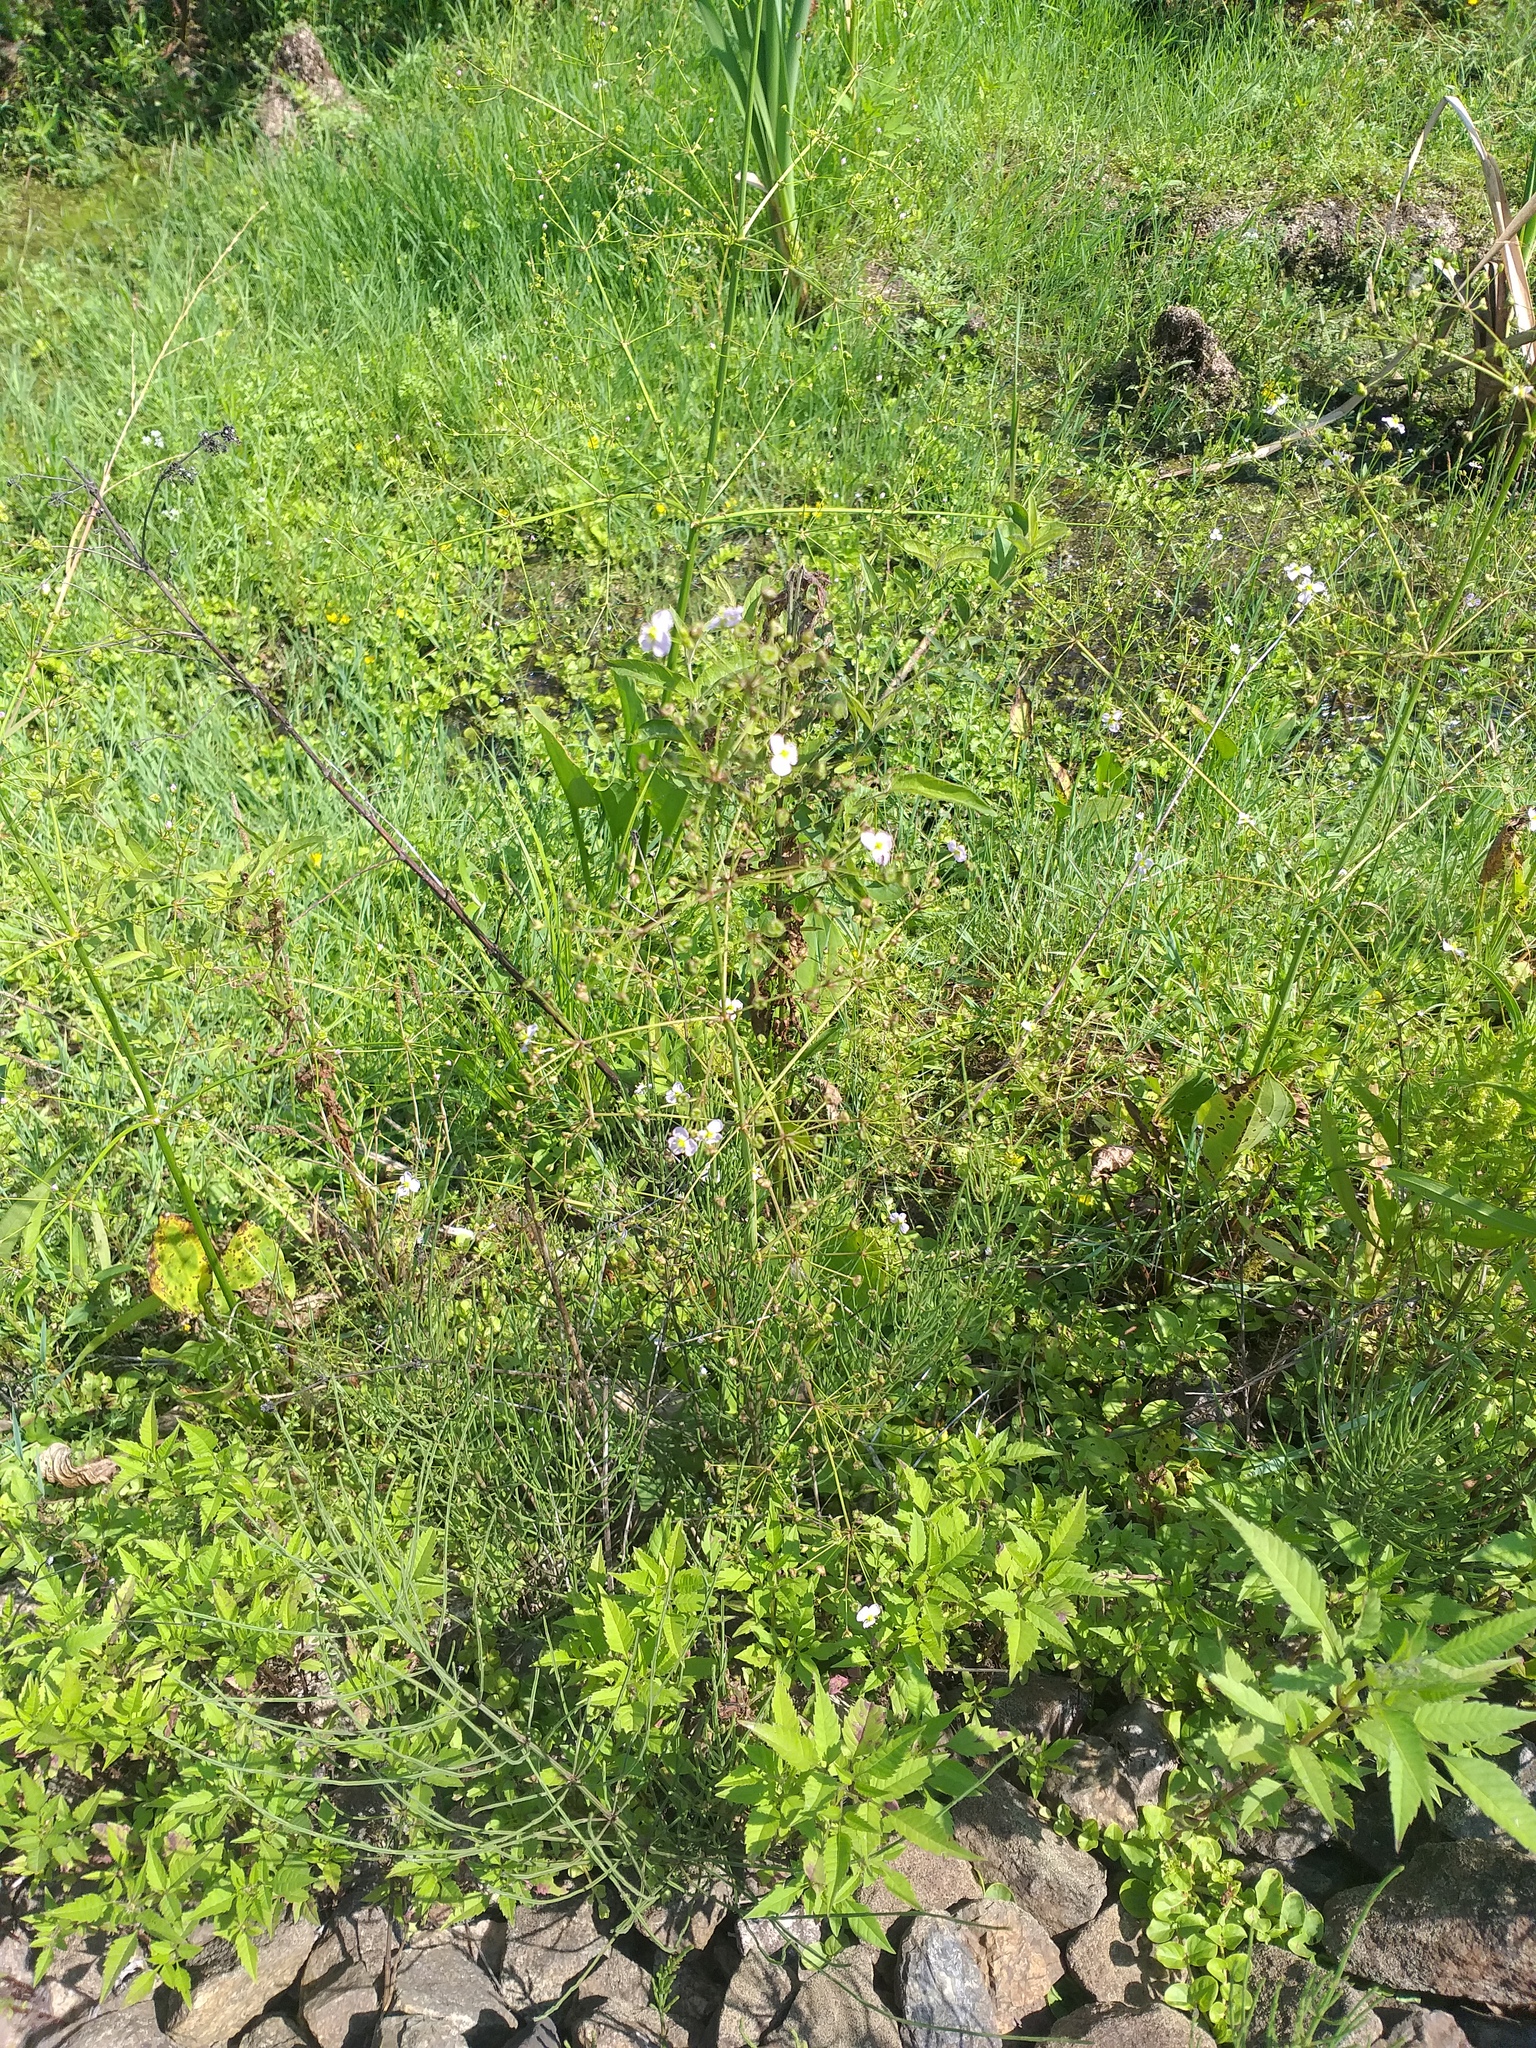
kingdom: Plantae
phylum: Tracheophyta
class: Liliopsida
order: Alismatales
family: Alismataceae
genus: Alisma
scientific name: Alisma plantago-aquatica
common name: Water-plantain
